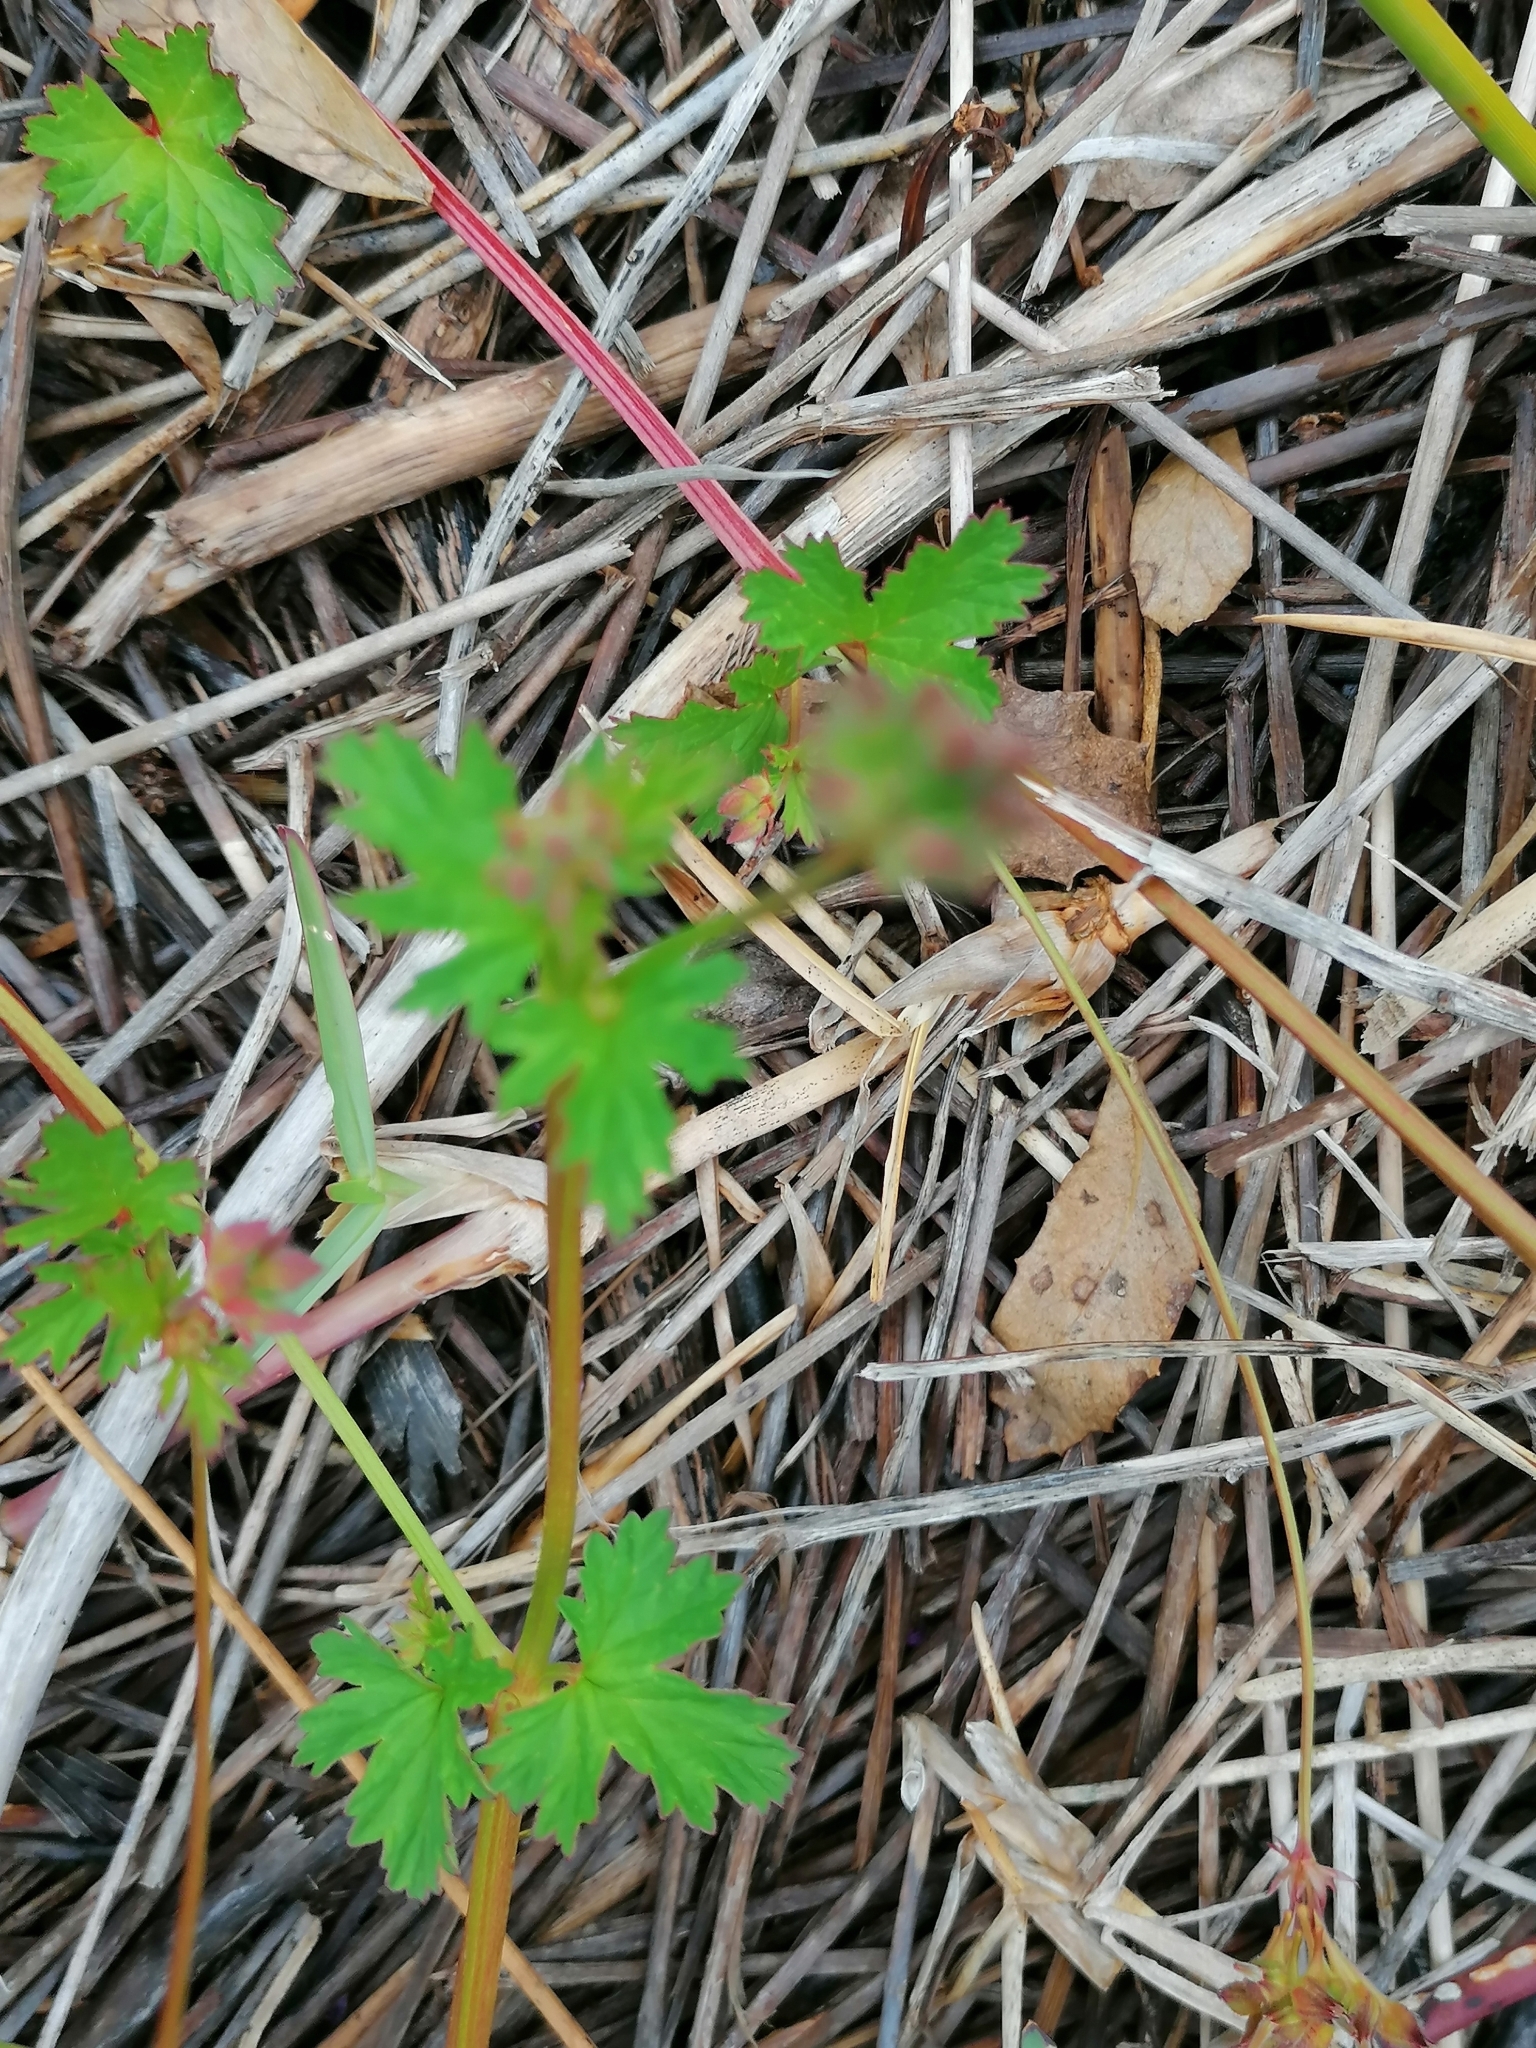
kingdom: Plantae
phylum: Tracheophyta
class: Magnoliopsida
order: Geraniales
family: Geraniaceae
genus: Pelargonium
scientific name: Pelargonium grossularioides
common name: Gooseberry geranium
